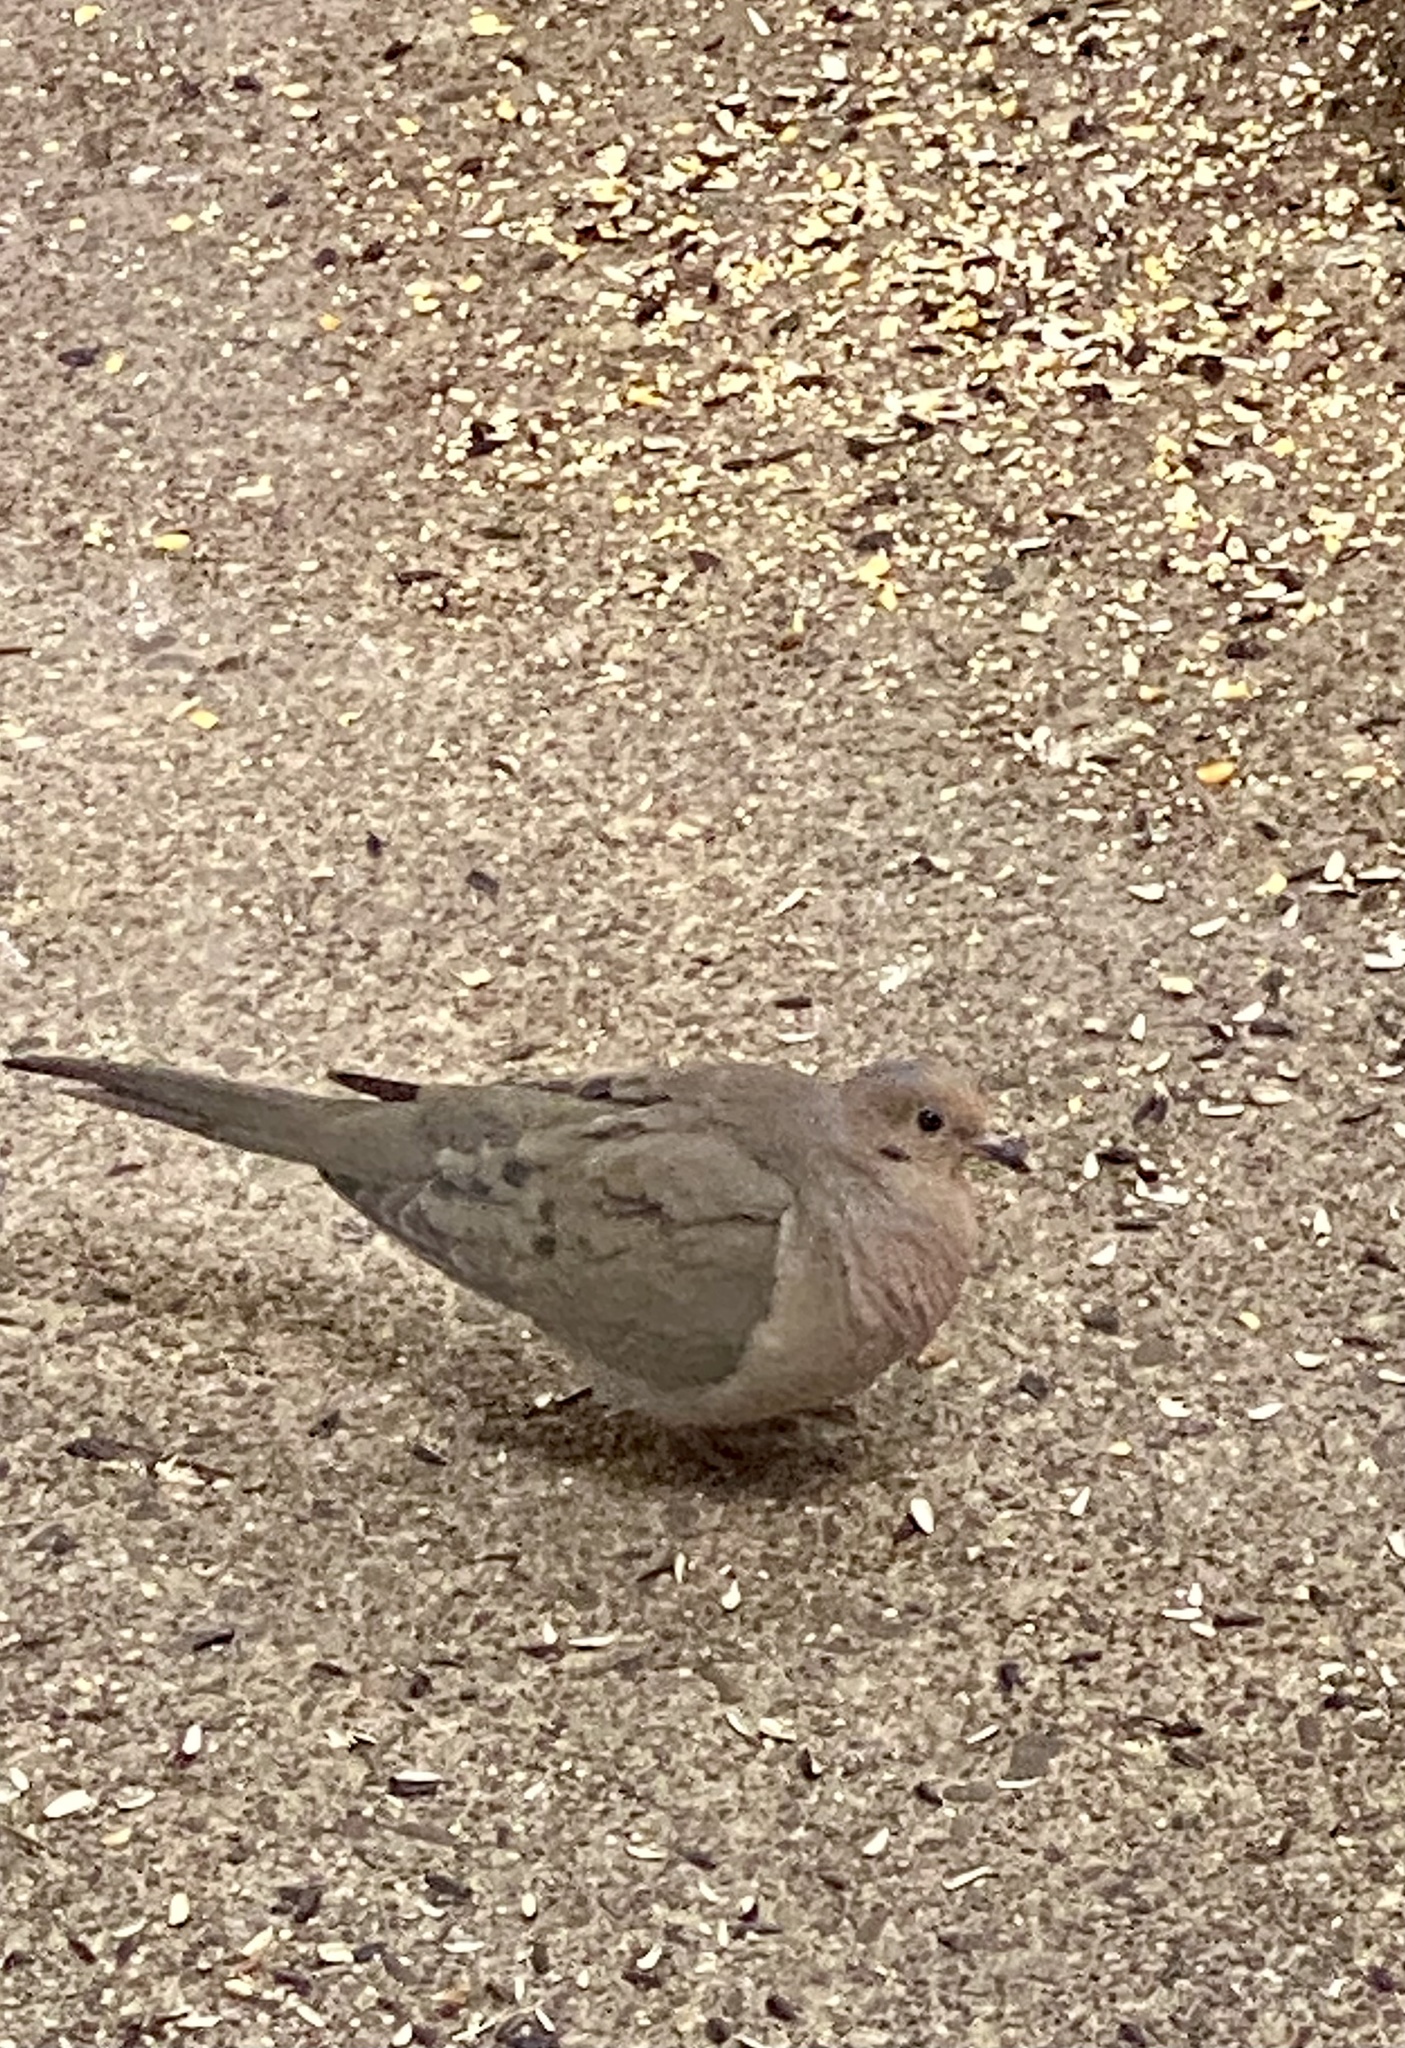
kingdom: Animalia
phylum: Chordata
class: Aves
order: Columbiformes
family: Columbidae
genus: Zenaida
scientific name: Zenaida macroura
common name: Mourning dove
